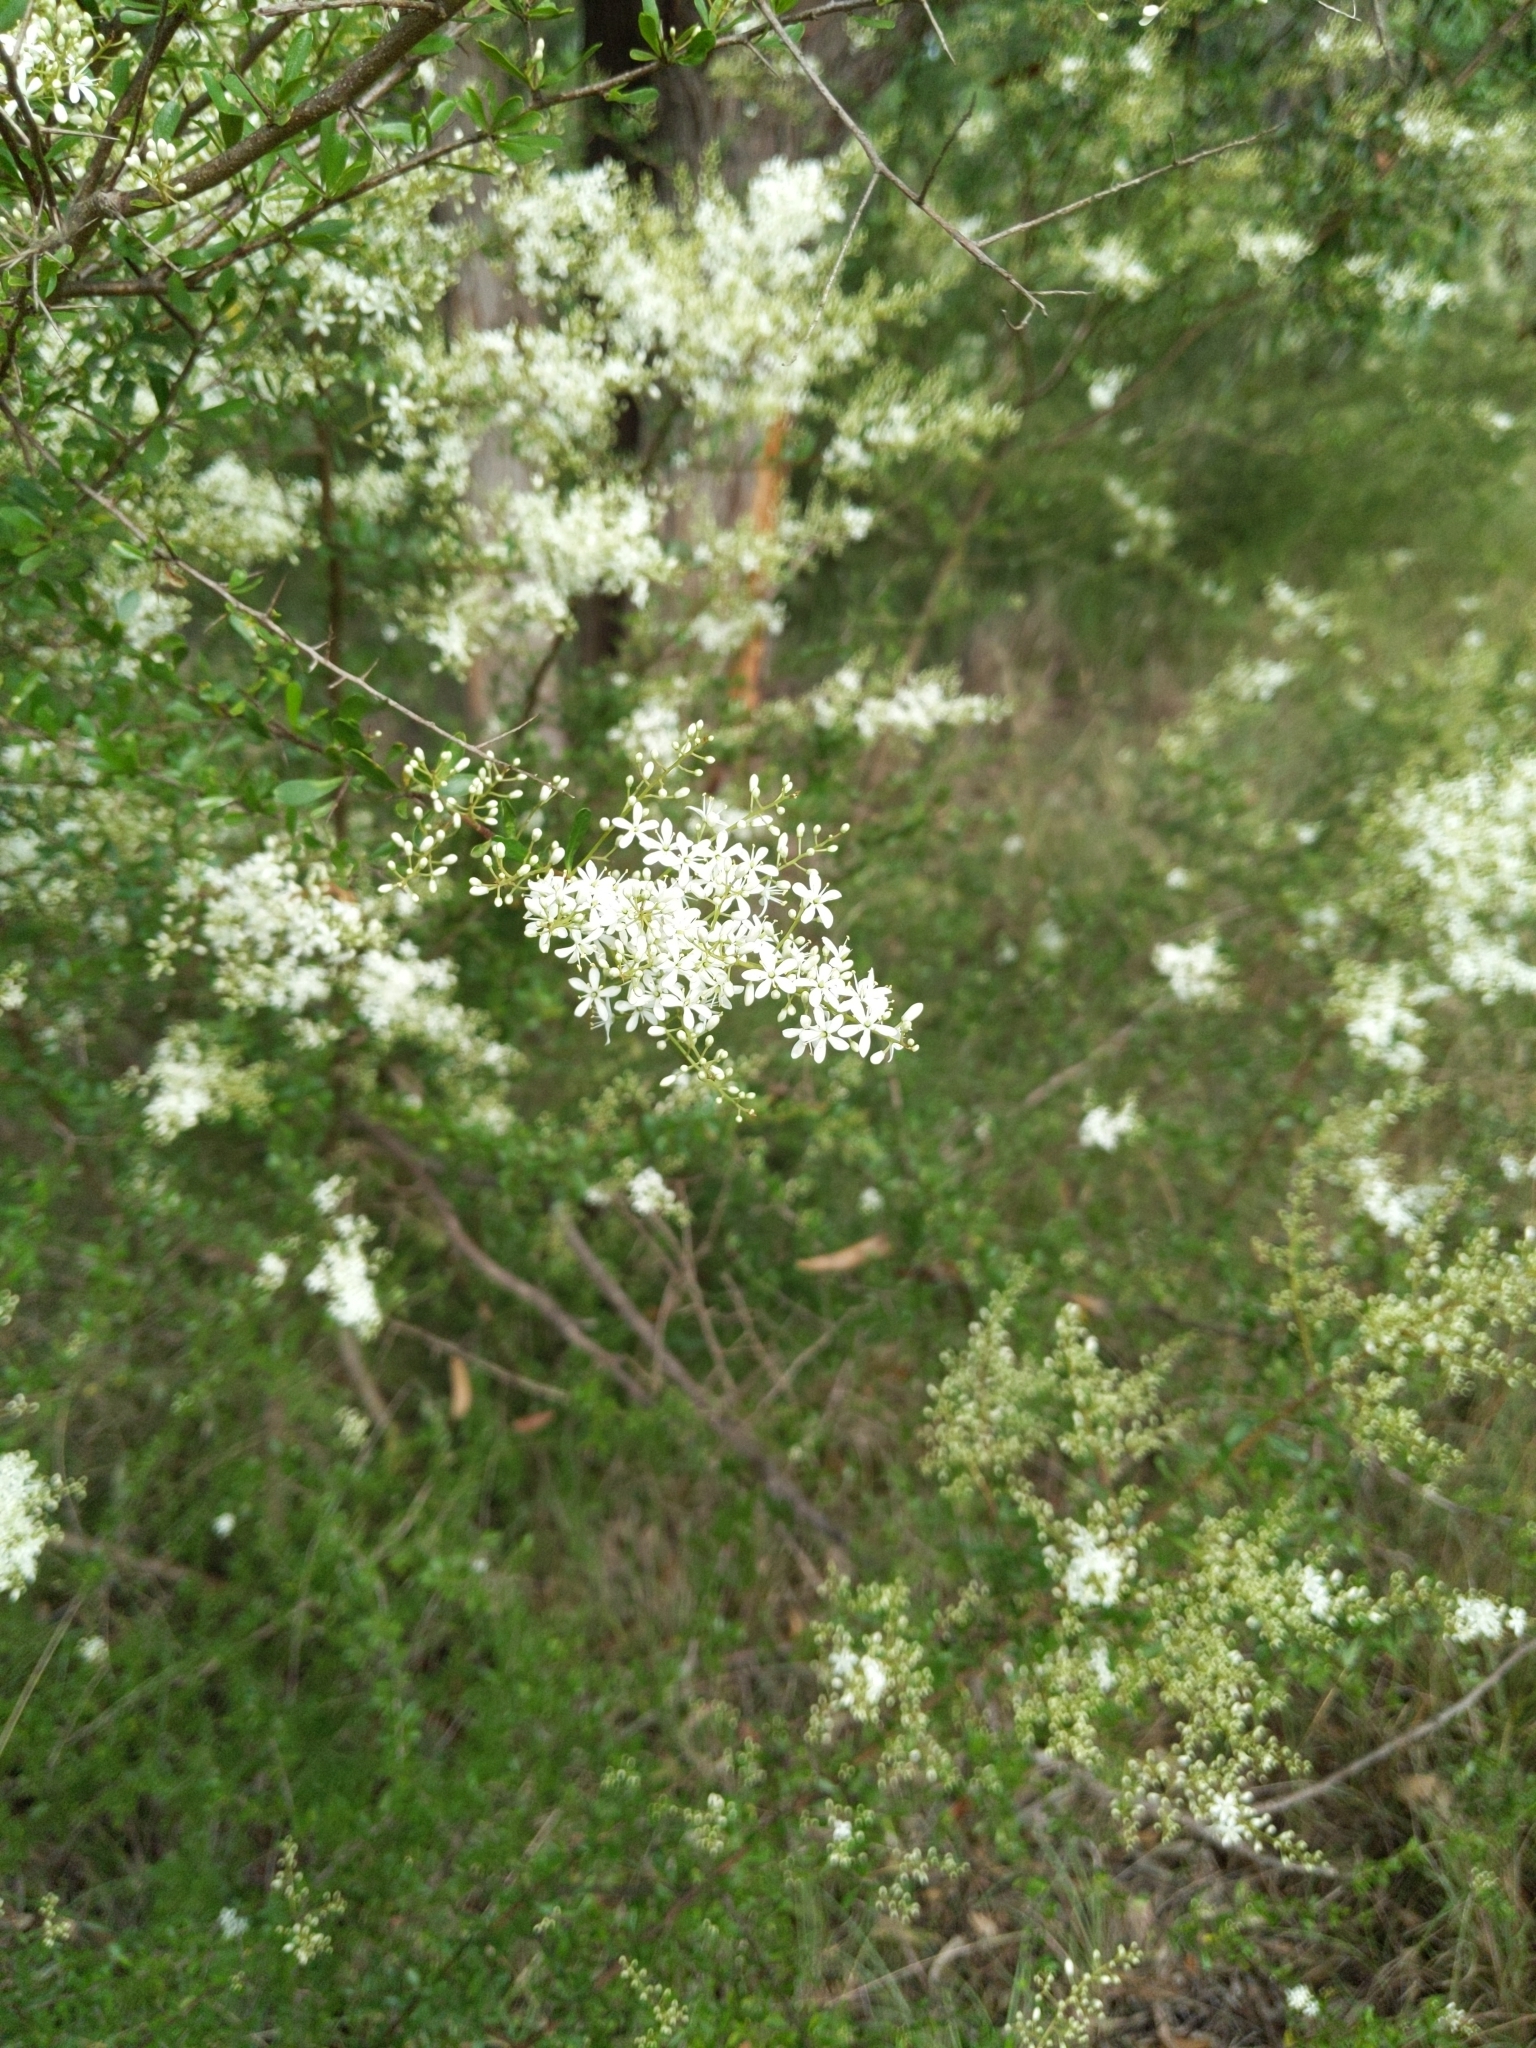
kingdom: Plantae
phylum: Tracheophyta
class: Magnoliopsida
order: Apiales
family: Pittosporaceae
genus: Bursaria
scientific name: Bursaria spinosa
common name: Australian blackthorn
